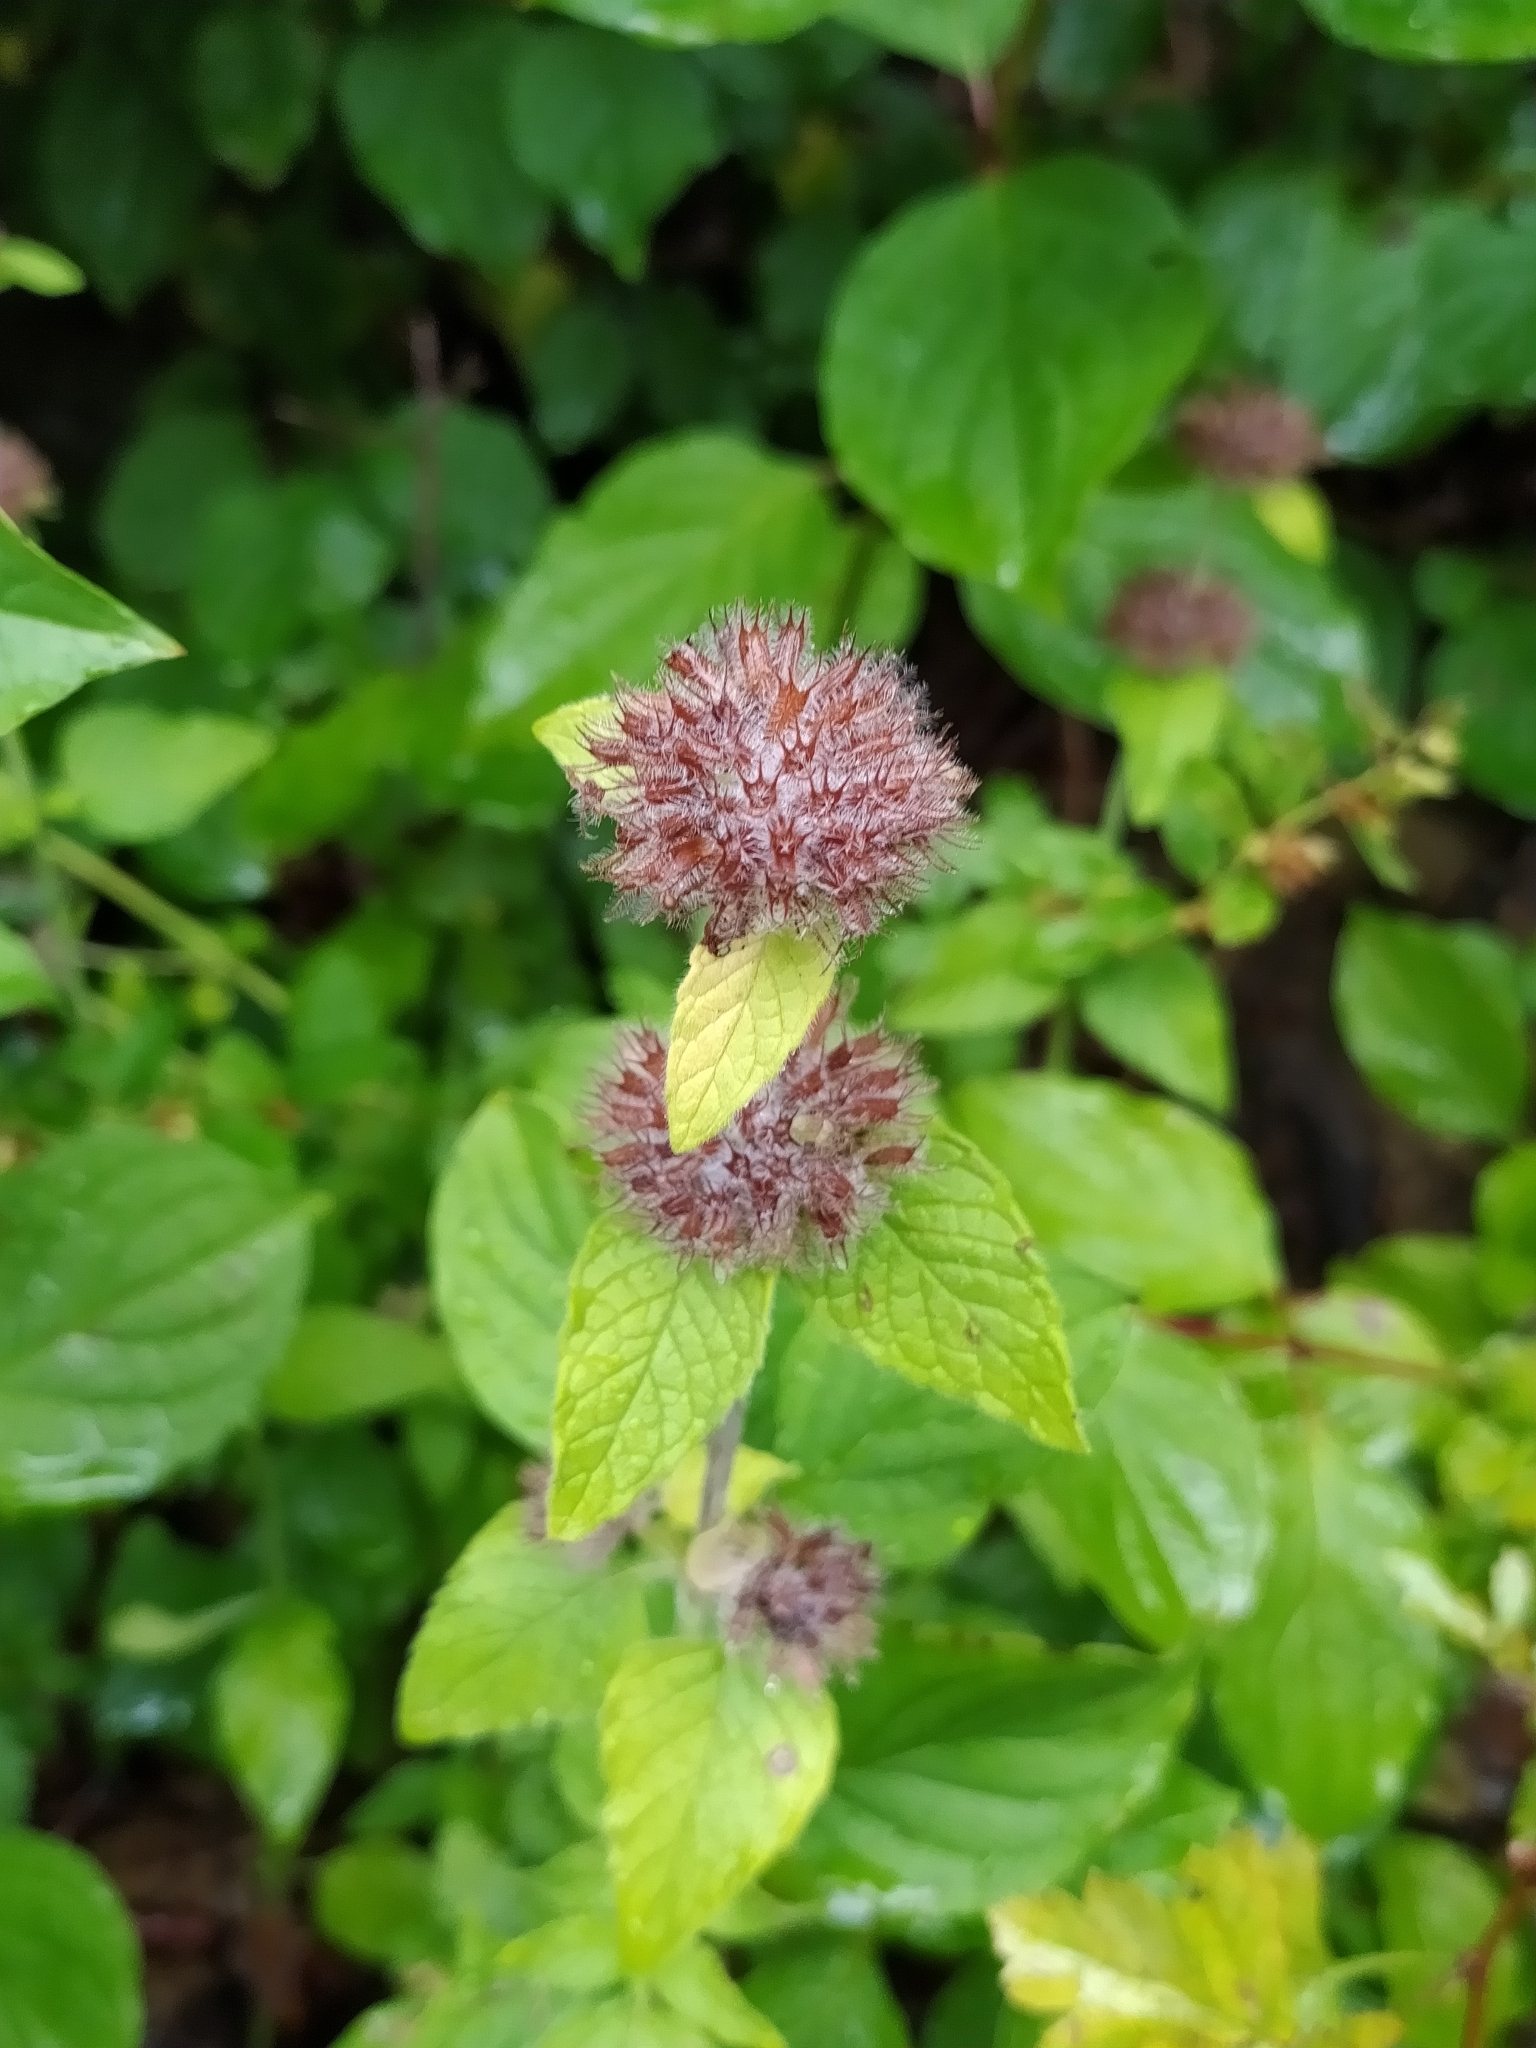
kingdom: Plantae
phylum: Tracheophyta
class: Magnoliopsida
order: Lamiales
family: Lamiaceae
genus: Clinopodium
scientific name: Clinopodium vulgare
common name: Wild basil
